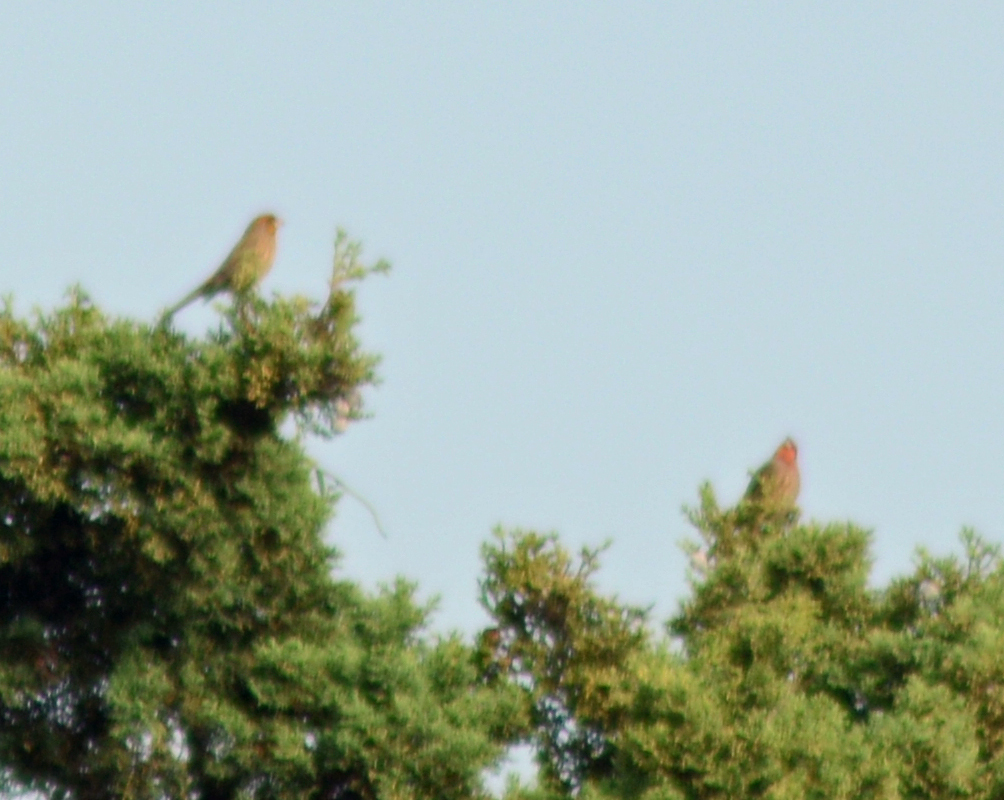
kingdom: Animalia
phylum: Chordata
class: Aves
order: Passeriformes
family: Fringillidae
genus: Haemorhous
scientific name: Haemorhous mexicanus
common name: House finch
